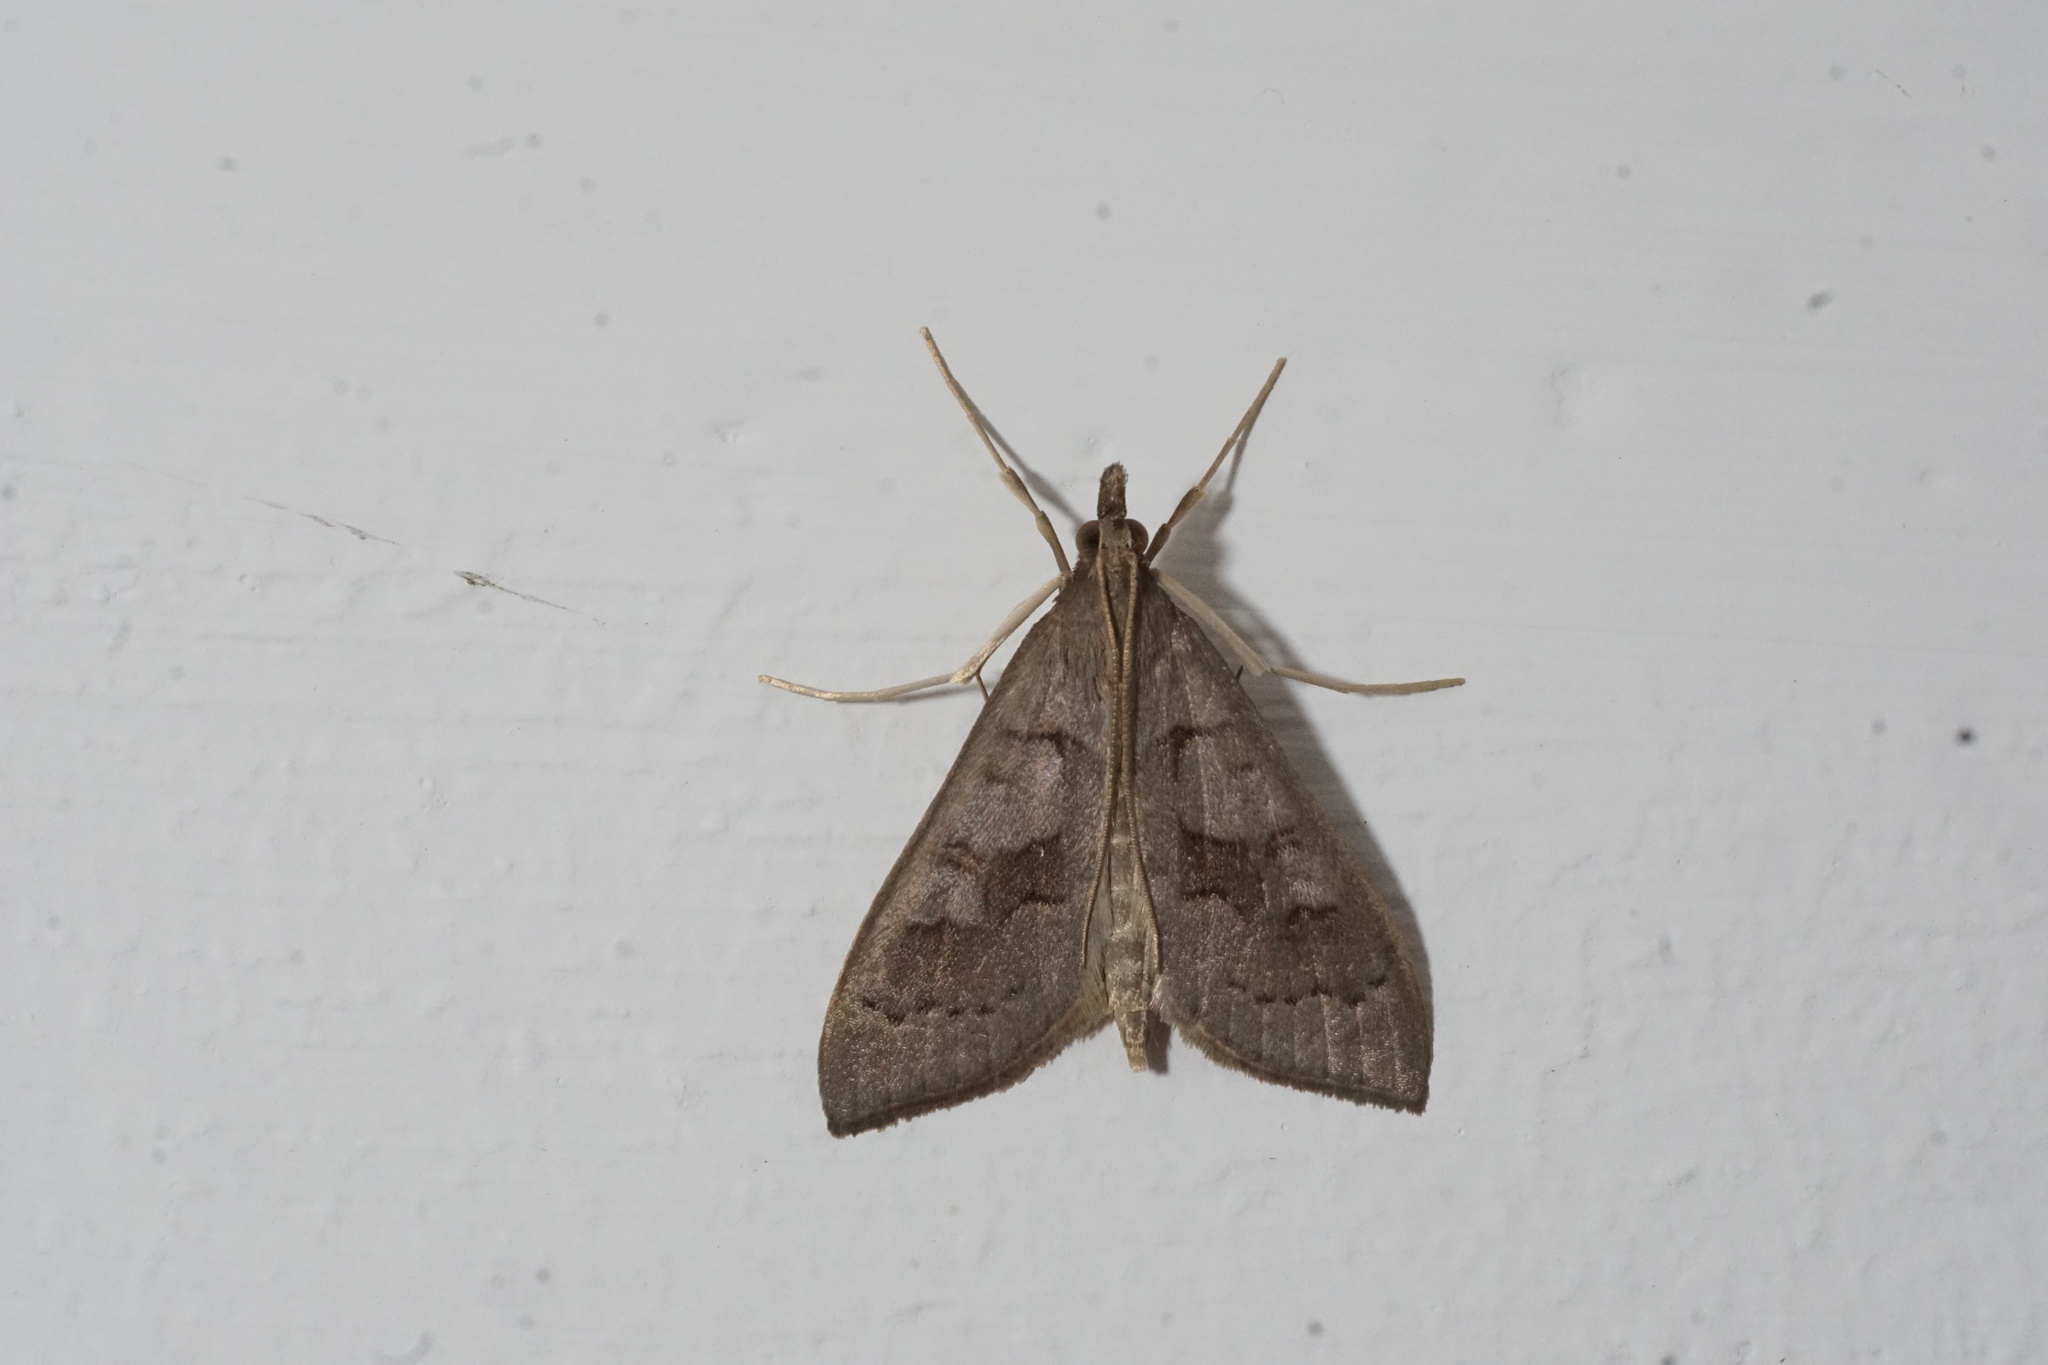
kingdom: Animalia
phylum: Arthropoda
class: Insecta
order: Lepidoptera
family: Crambidae
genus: Mecyna
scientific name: Mecyna asinalis
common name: Coastal pearl
